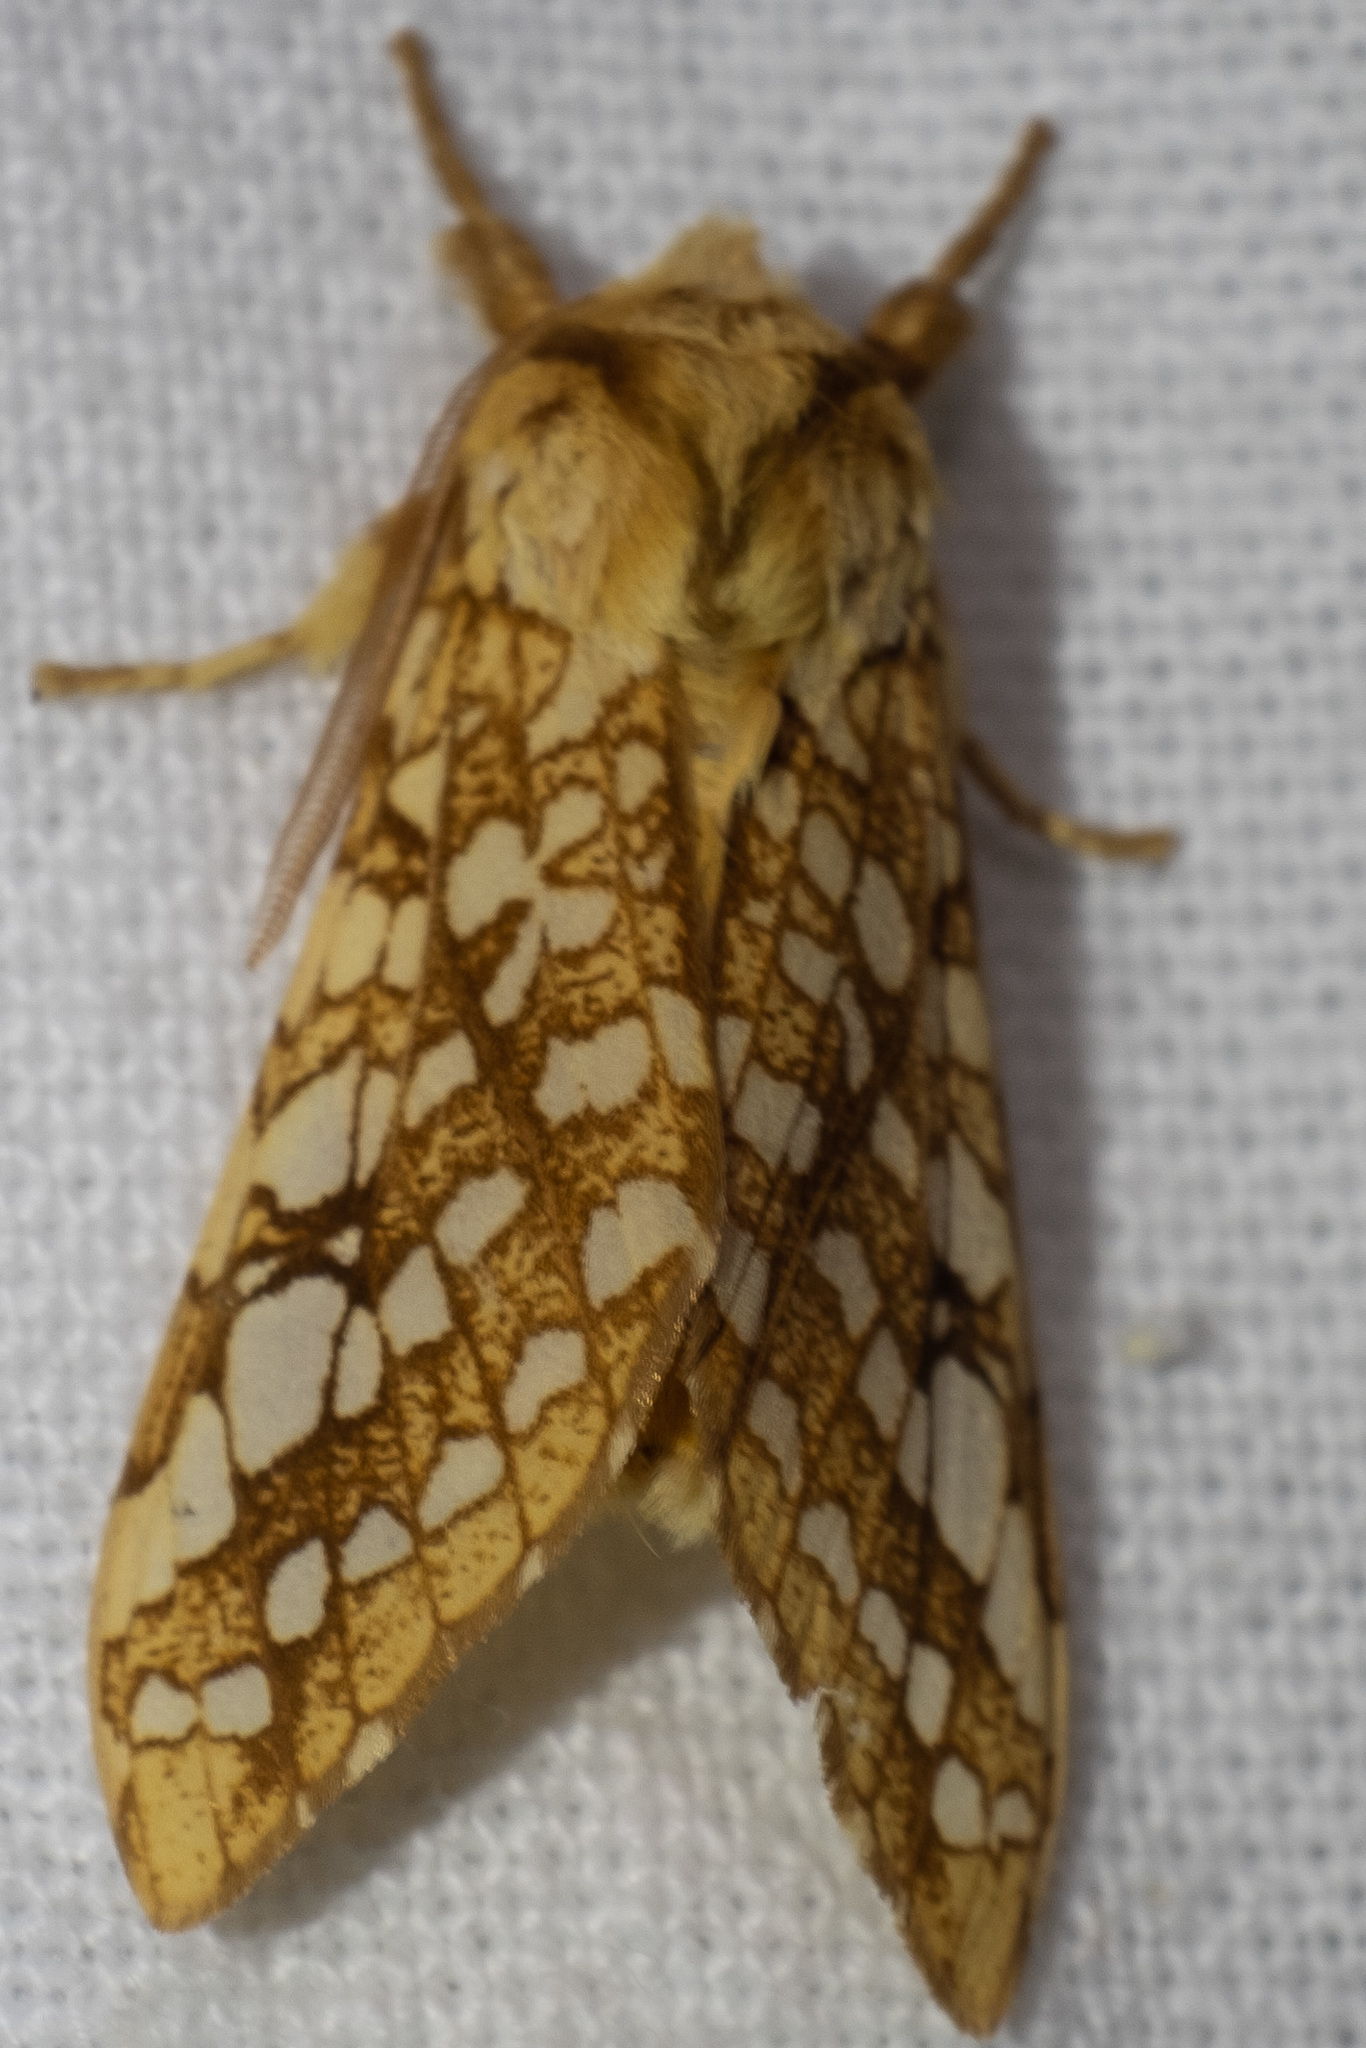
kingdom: Animalia
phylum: Arthropoda
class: Insecta
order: Lepidoptera
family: Erebidae
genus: Lophocampa
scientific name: Lophocampa caryae
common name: Hickory tussock moth
